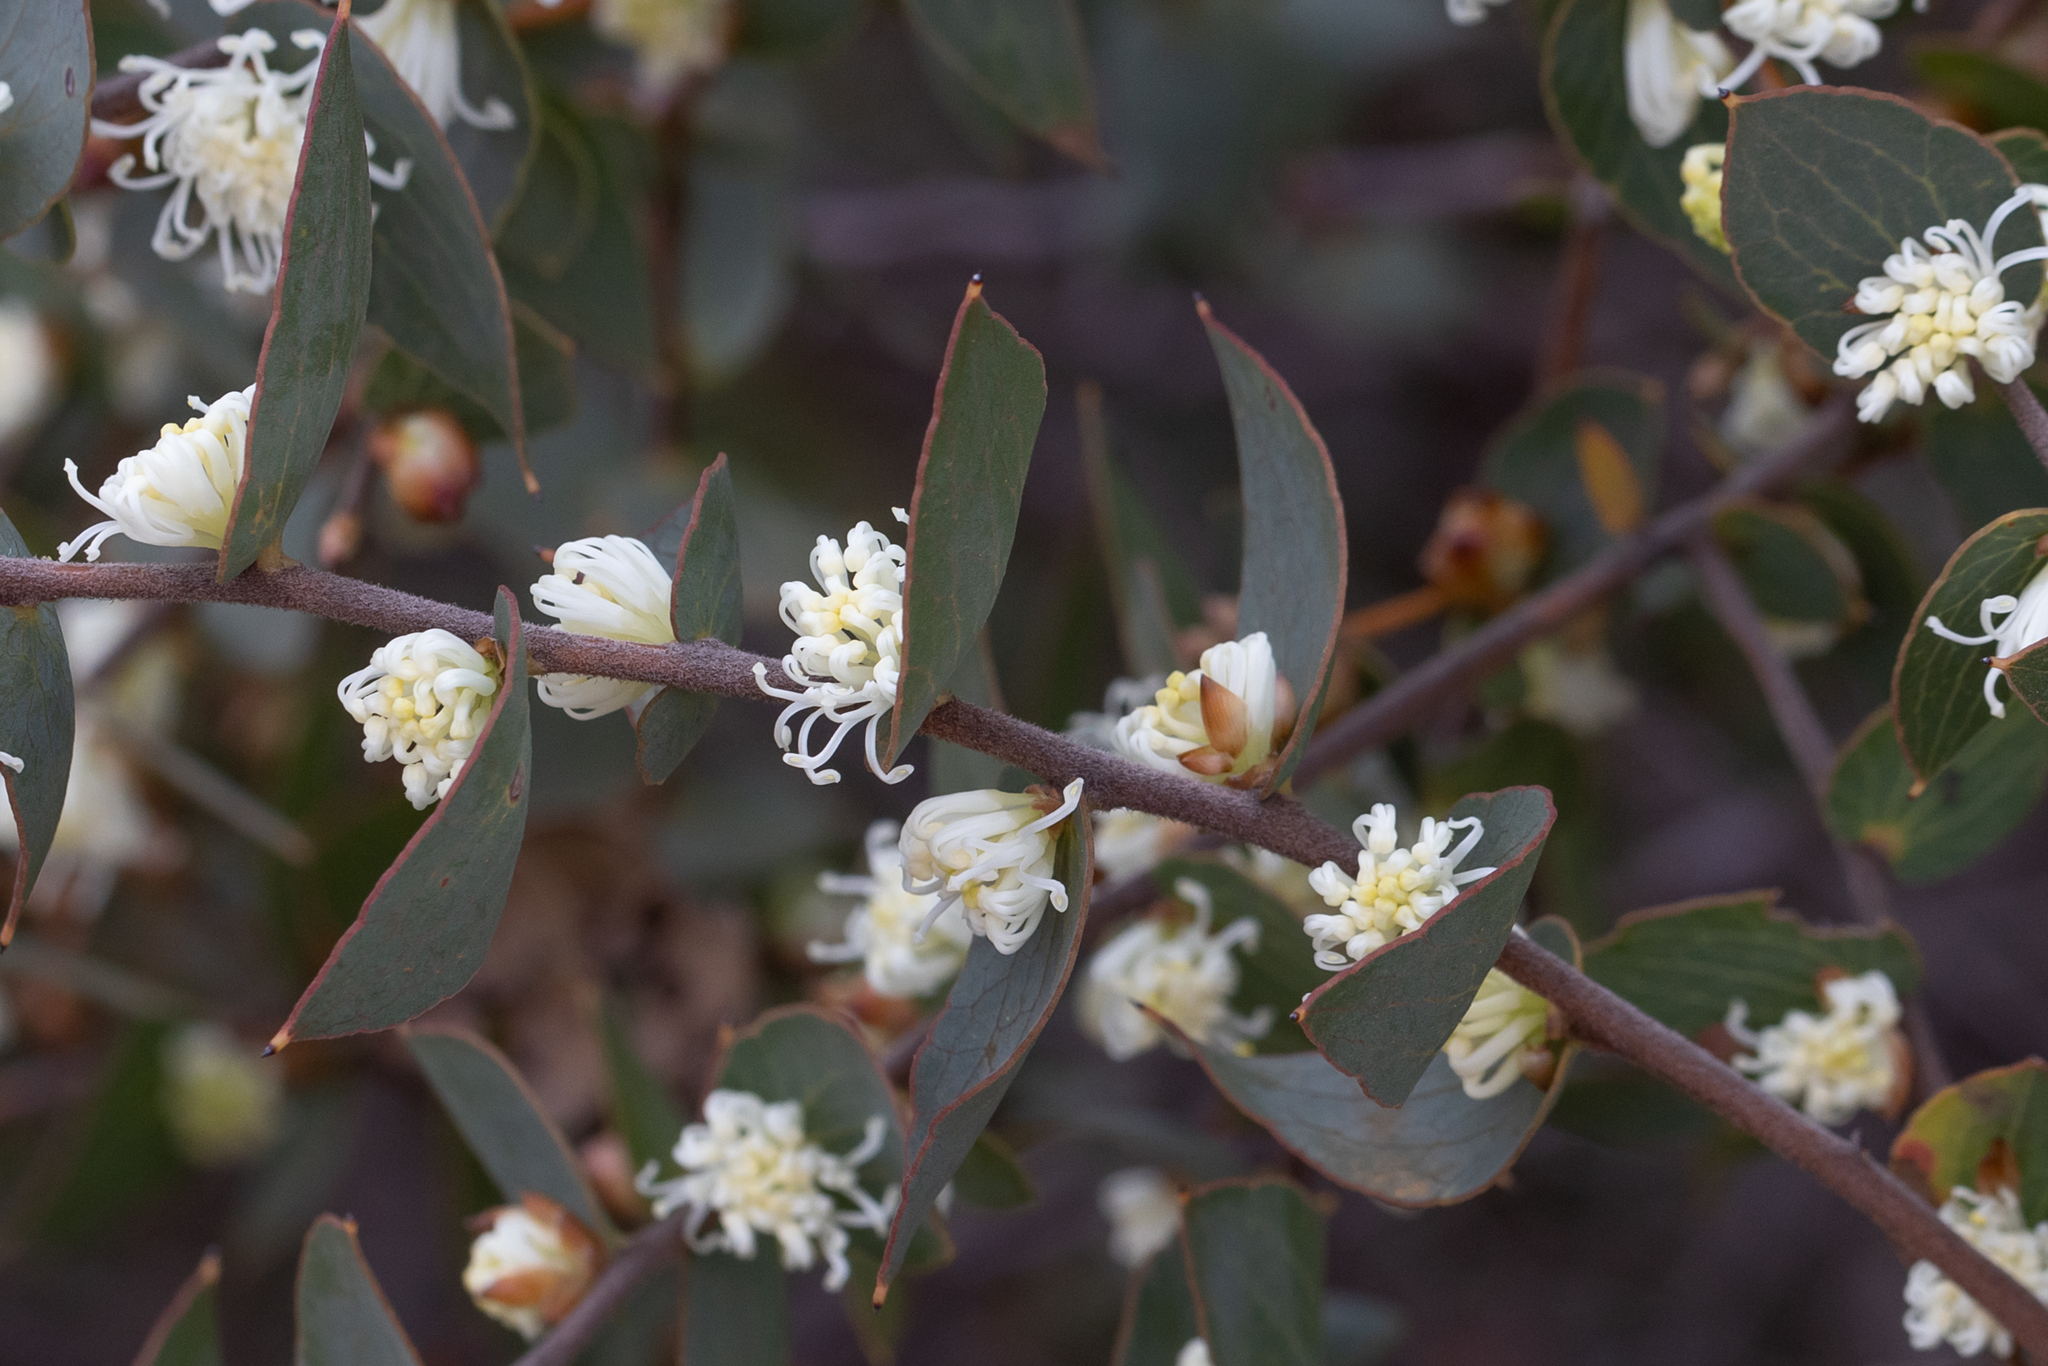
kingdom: Plantae
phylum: Tracheophyta
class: Magnoliopsida
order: Proteales
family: Proteaceae
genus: Hakea
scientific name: Hakea ferruginea
